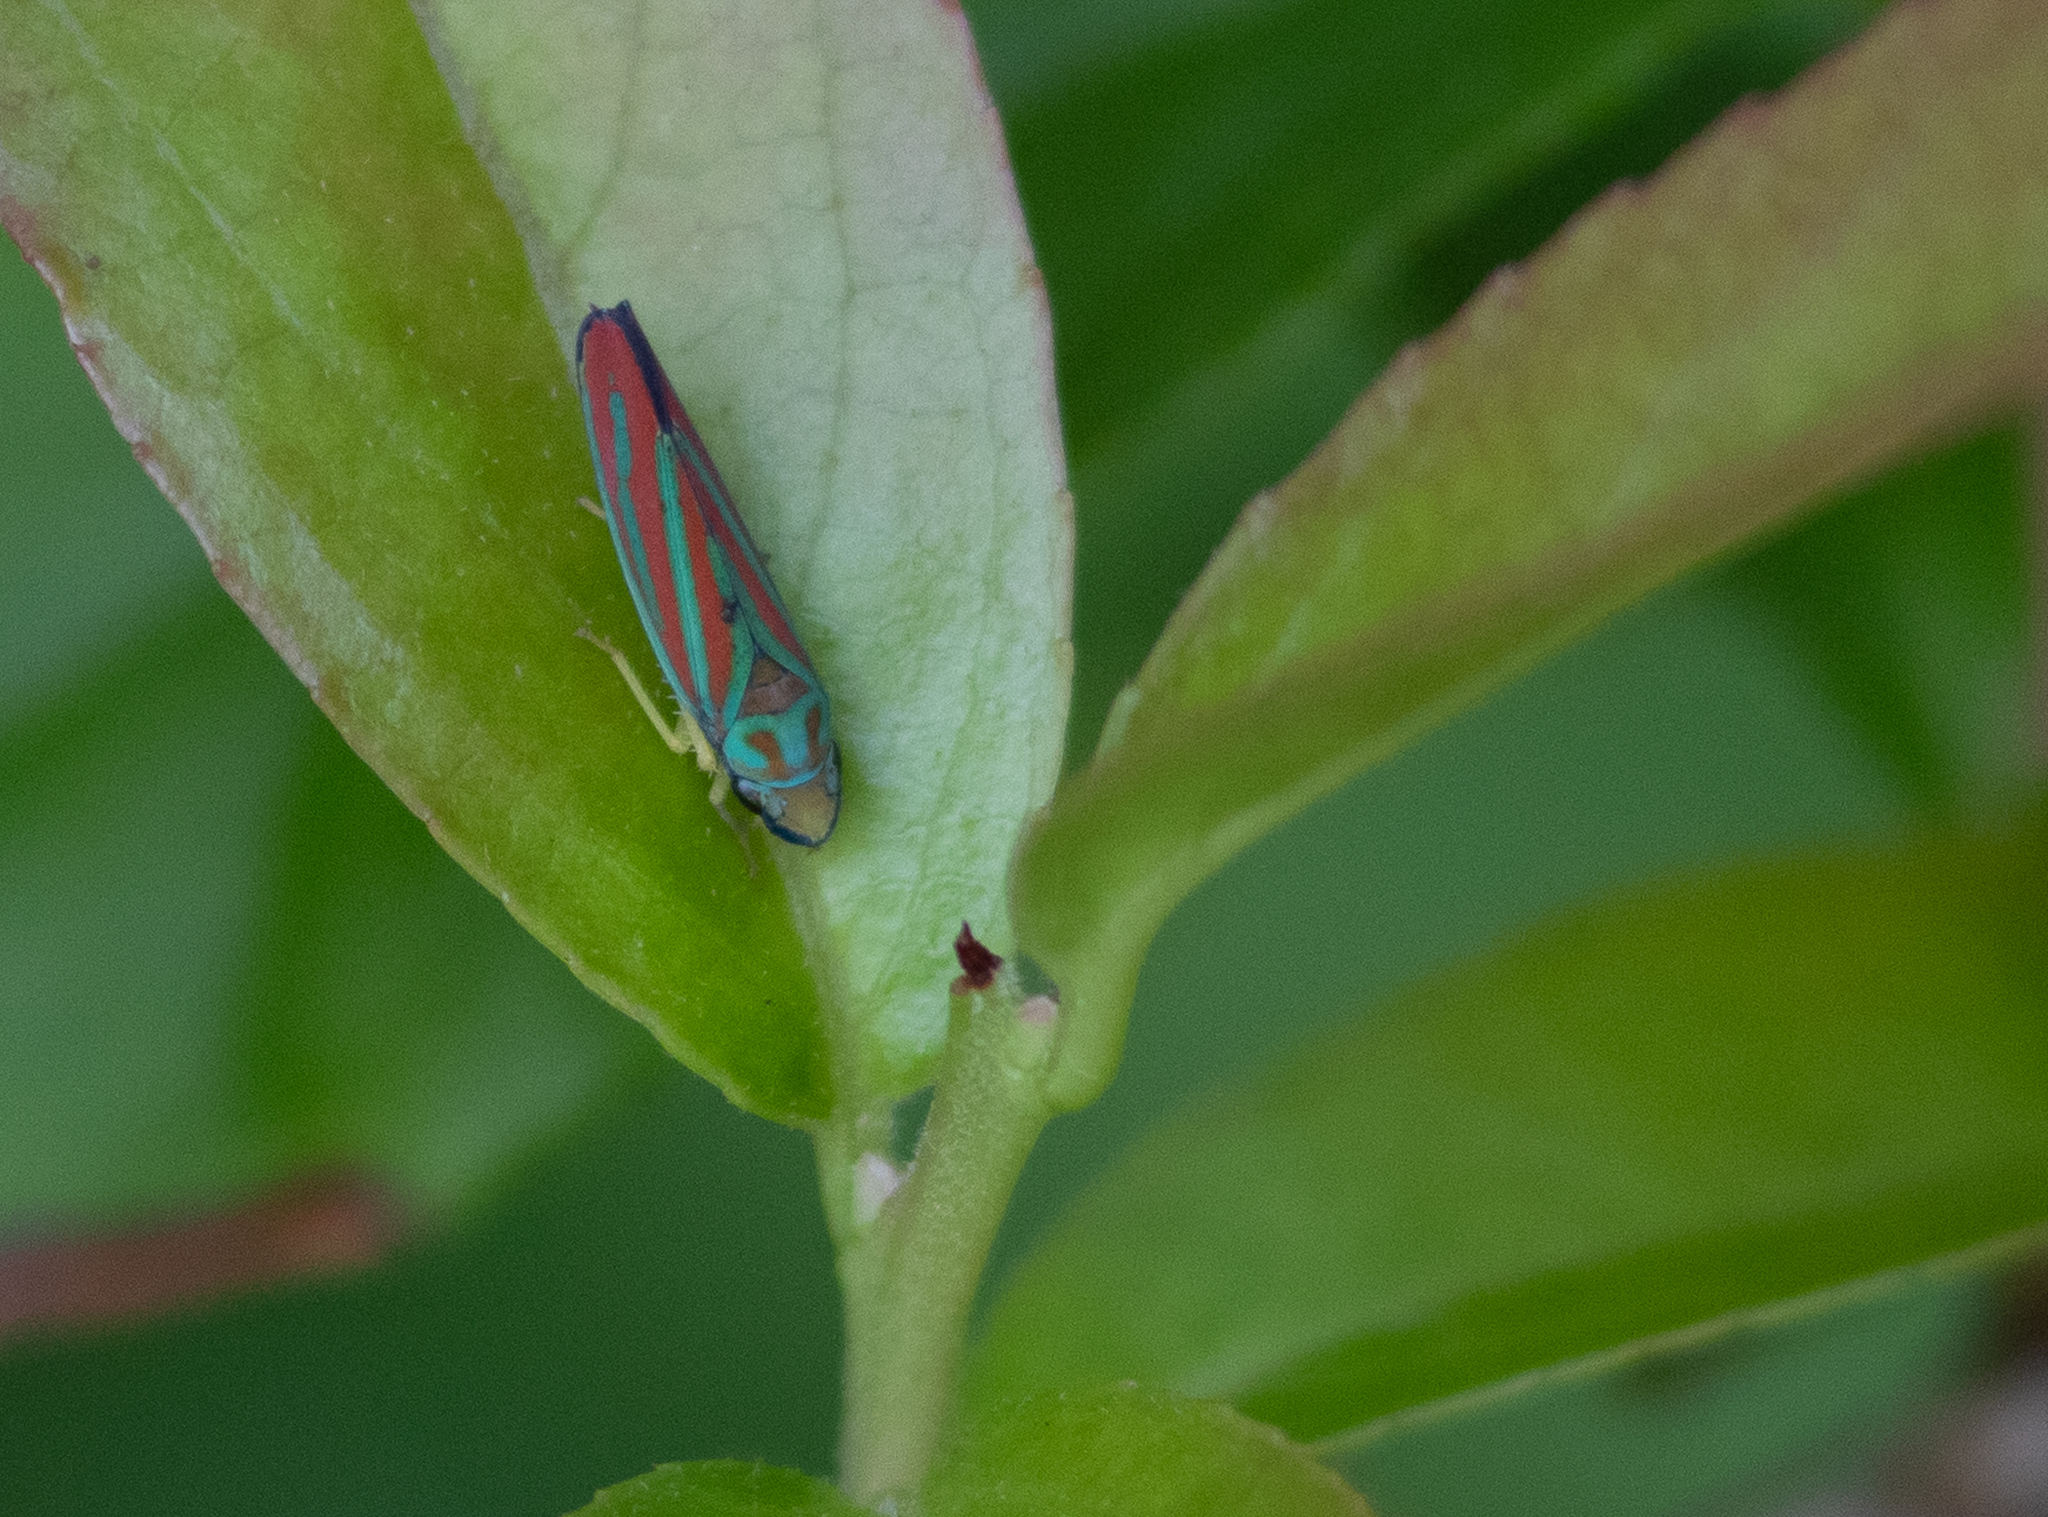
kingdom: Animalia
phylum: Arthropoda
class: Insecta
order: Hemiptera
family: Cicadellidae
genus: Graphocephala
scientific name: Graphocephala coccinea
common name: Candy-striped leafhopper
